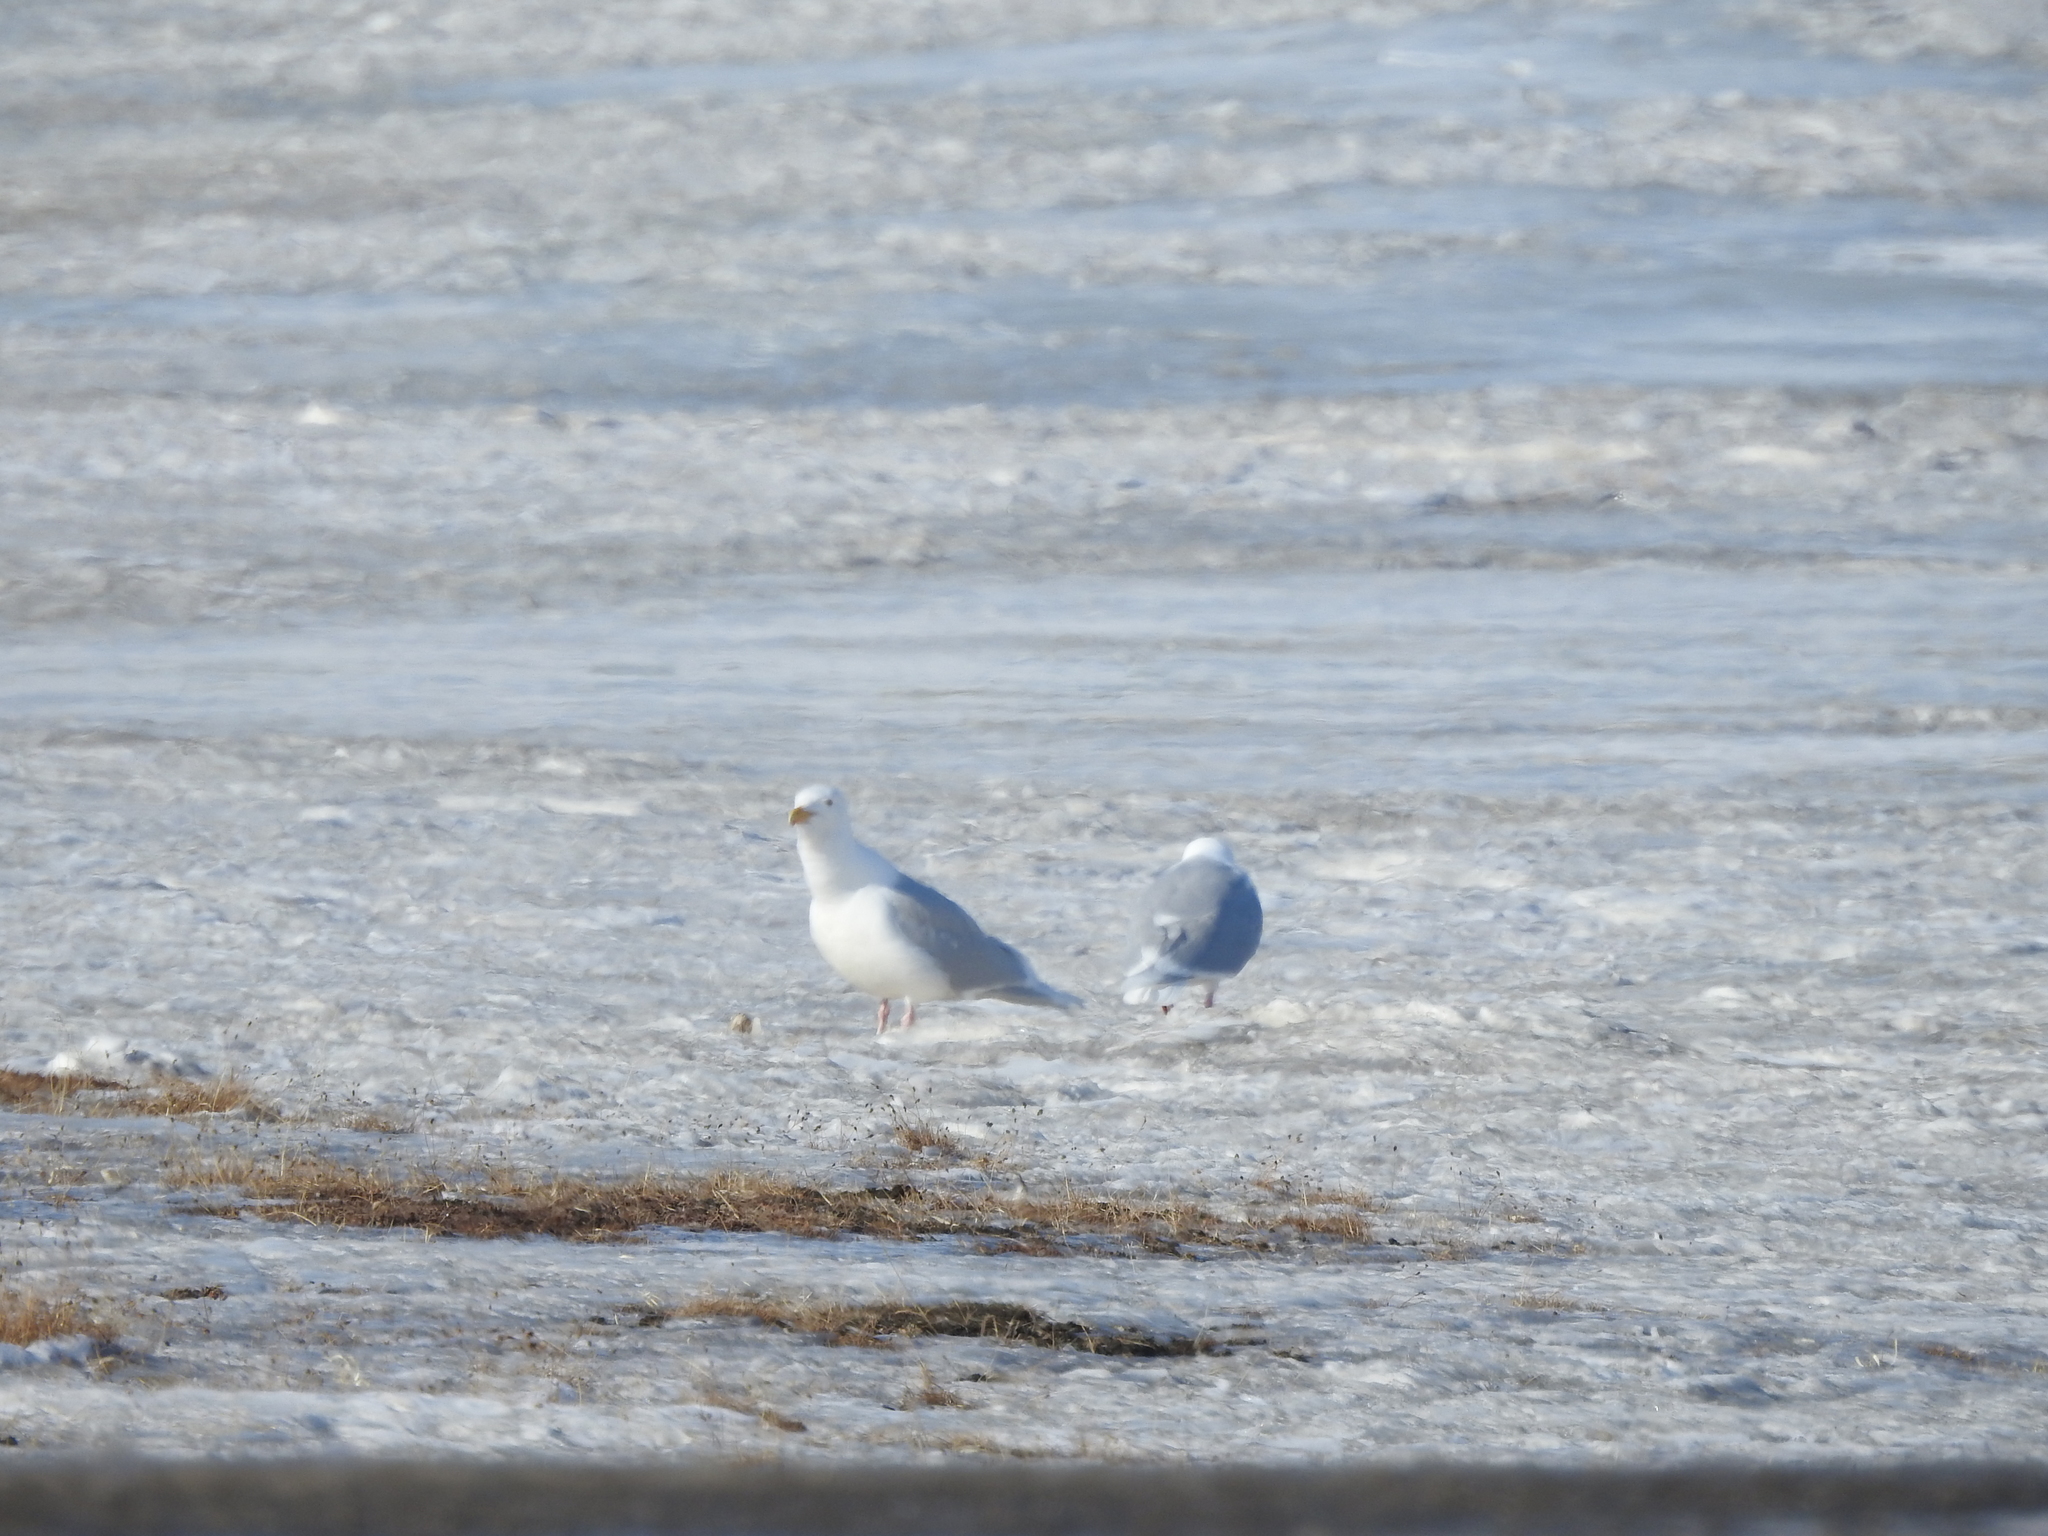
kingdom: Animalia
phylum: Chordata
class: Aves
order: Charadriiformes
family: Laridae
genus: Larus
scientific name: Larus hyperboreus
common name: Glaucous gull
